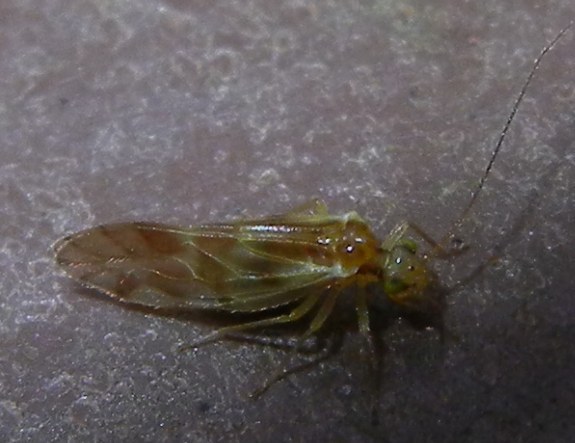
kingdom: Animalia
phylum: Arthropoda
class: Insecta
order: Psocodea
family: Paracaeciliidae
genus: Chilenocaecilius
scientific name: Chilenocaecilius ornatipennis
